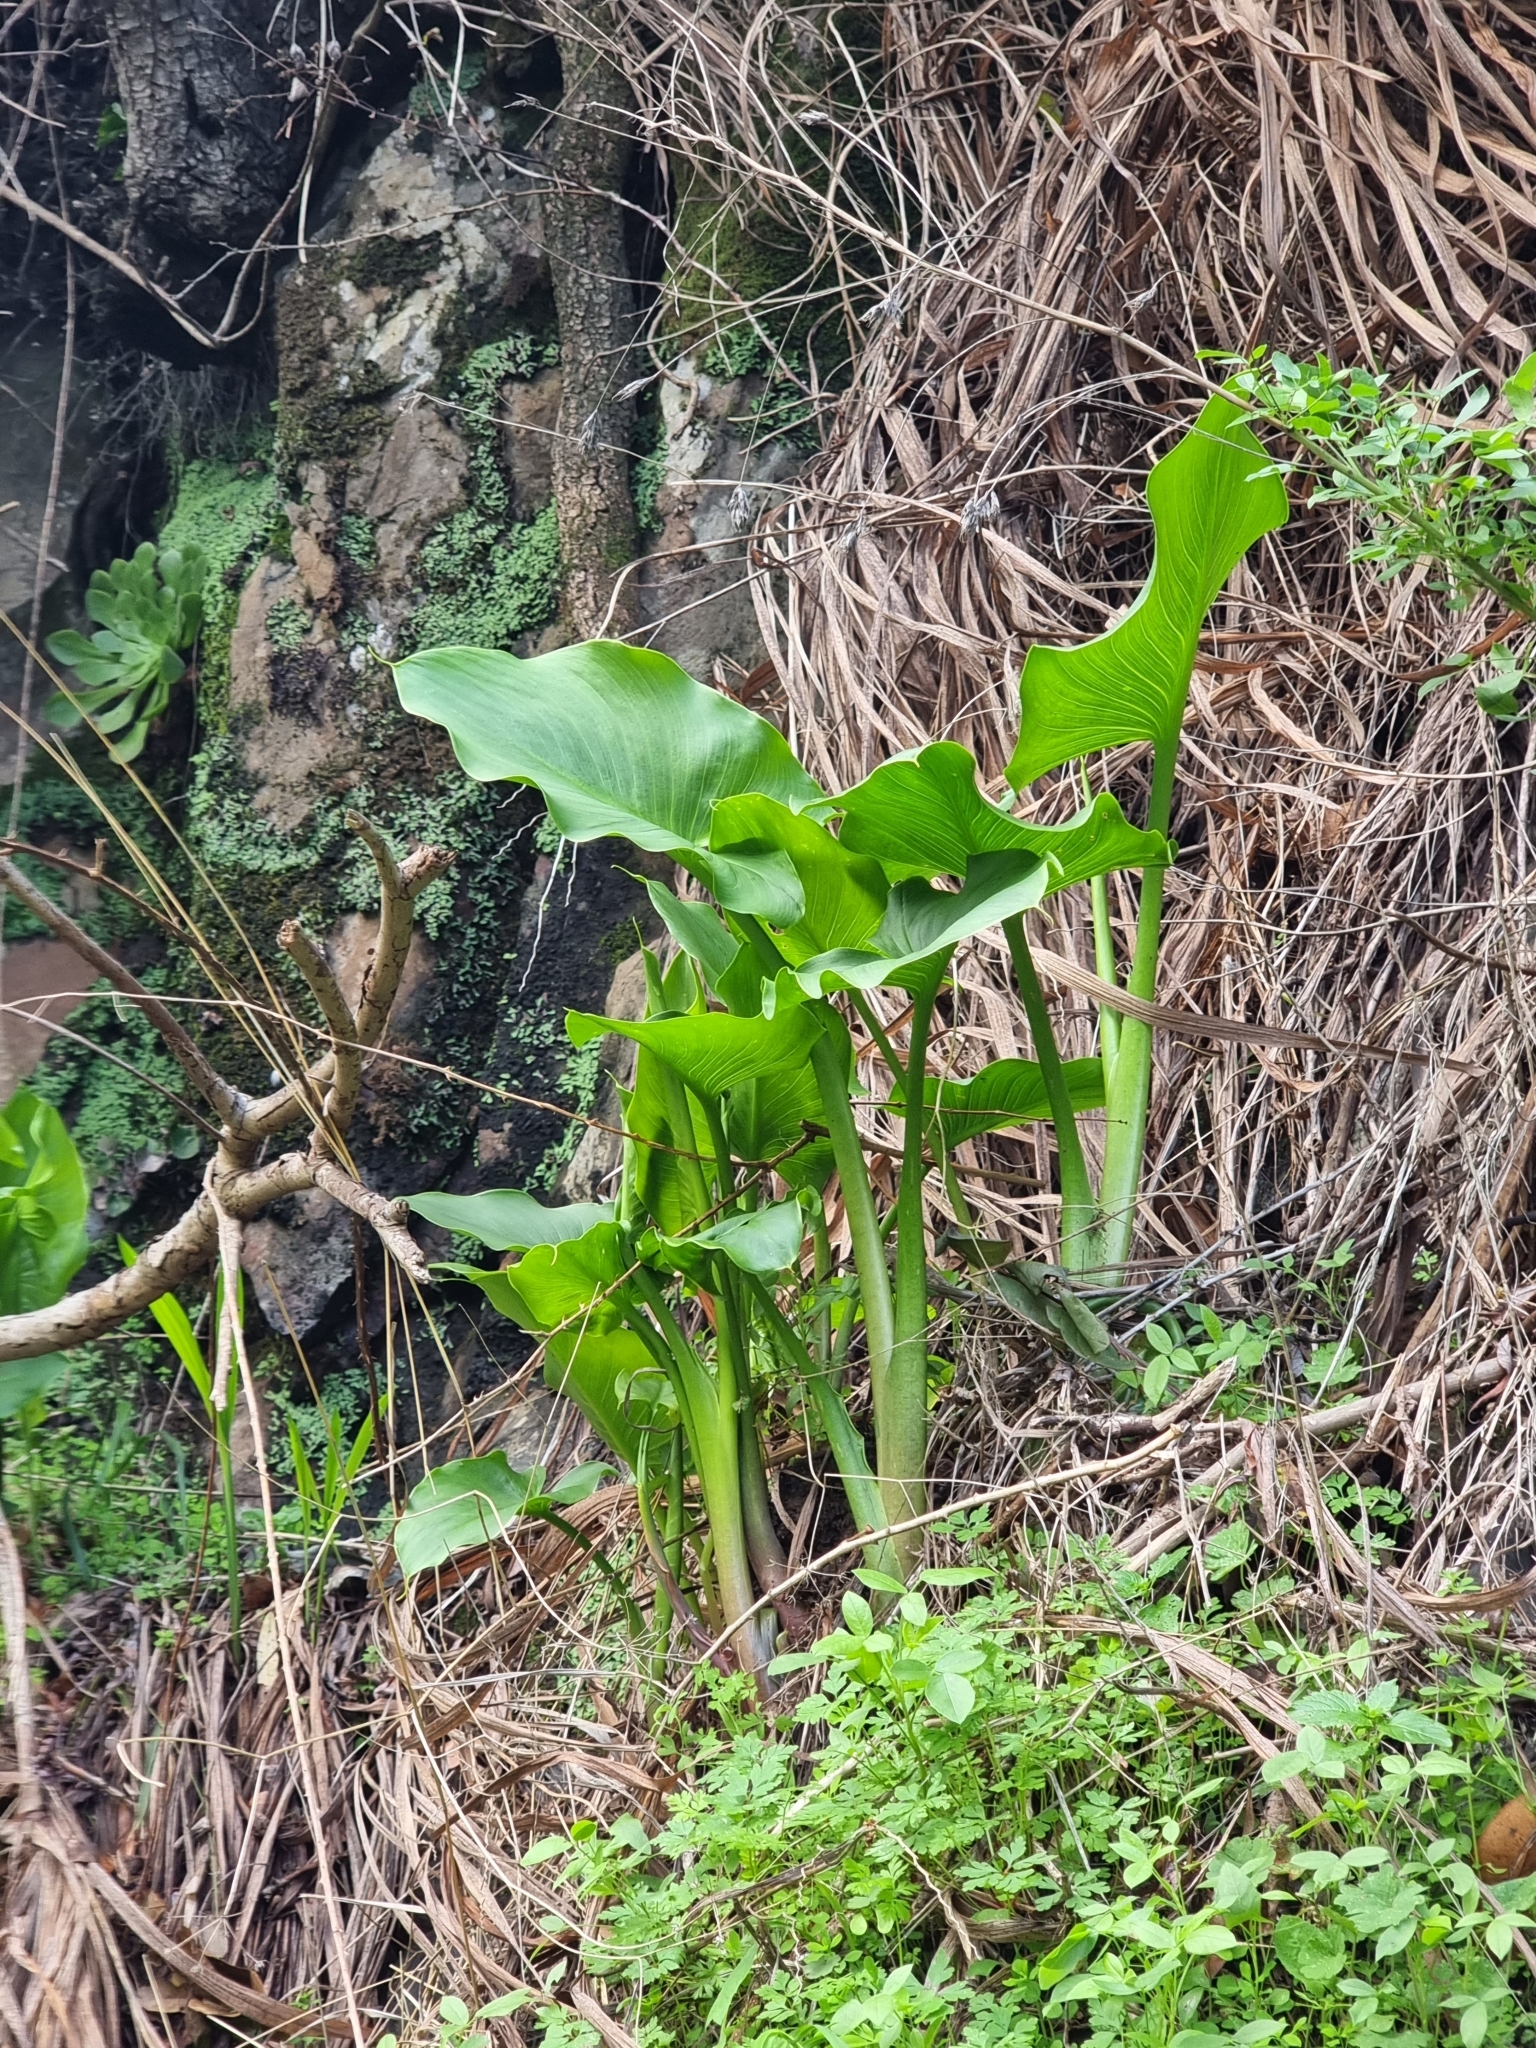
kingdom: Plantae
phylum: Tracheophyta
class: Liliopsida
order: Alismatales
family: Araceae
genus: Zantedeschia
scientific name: Zantedeschia aethiopica
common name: Altar-lily
